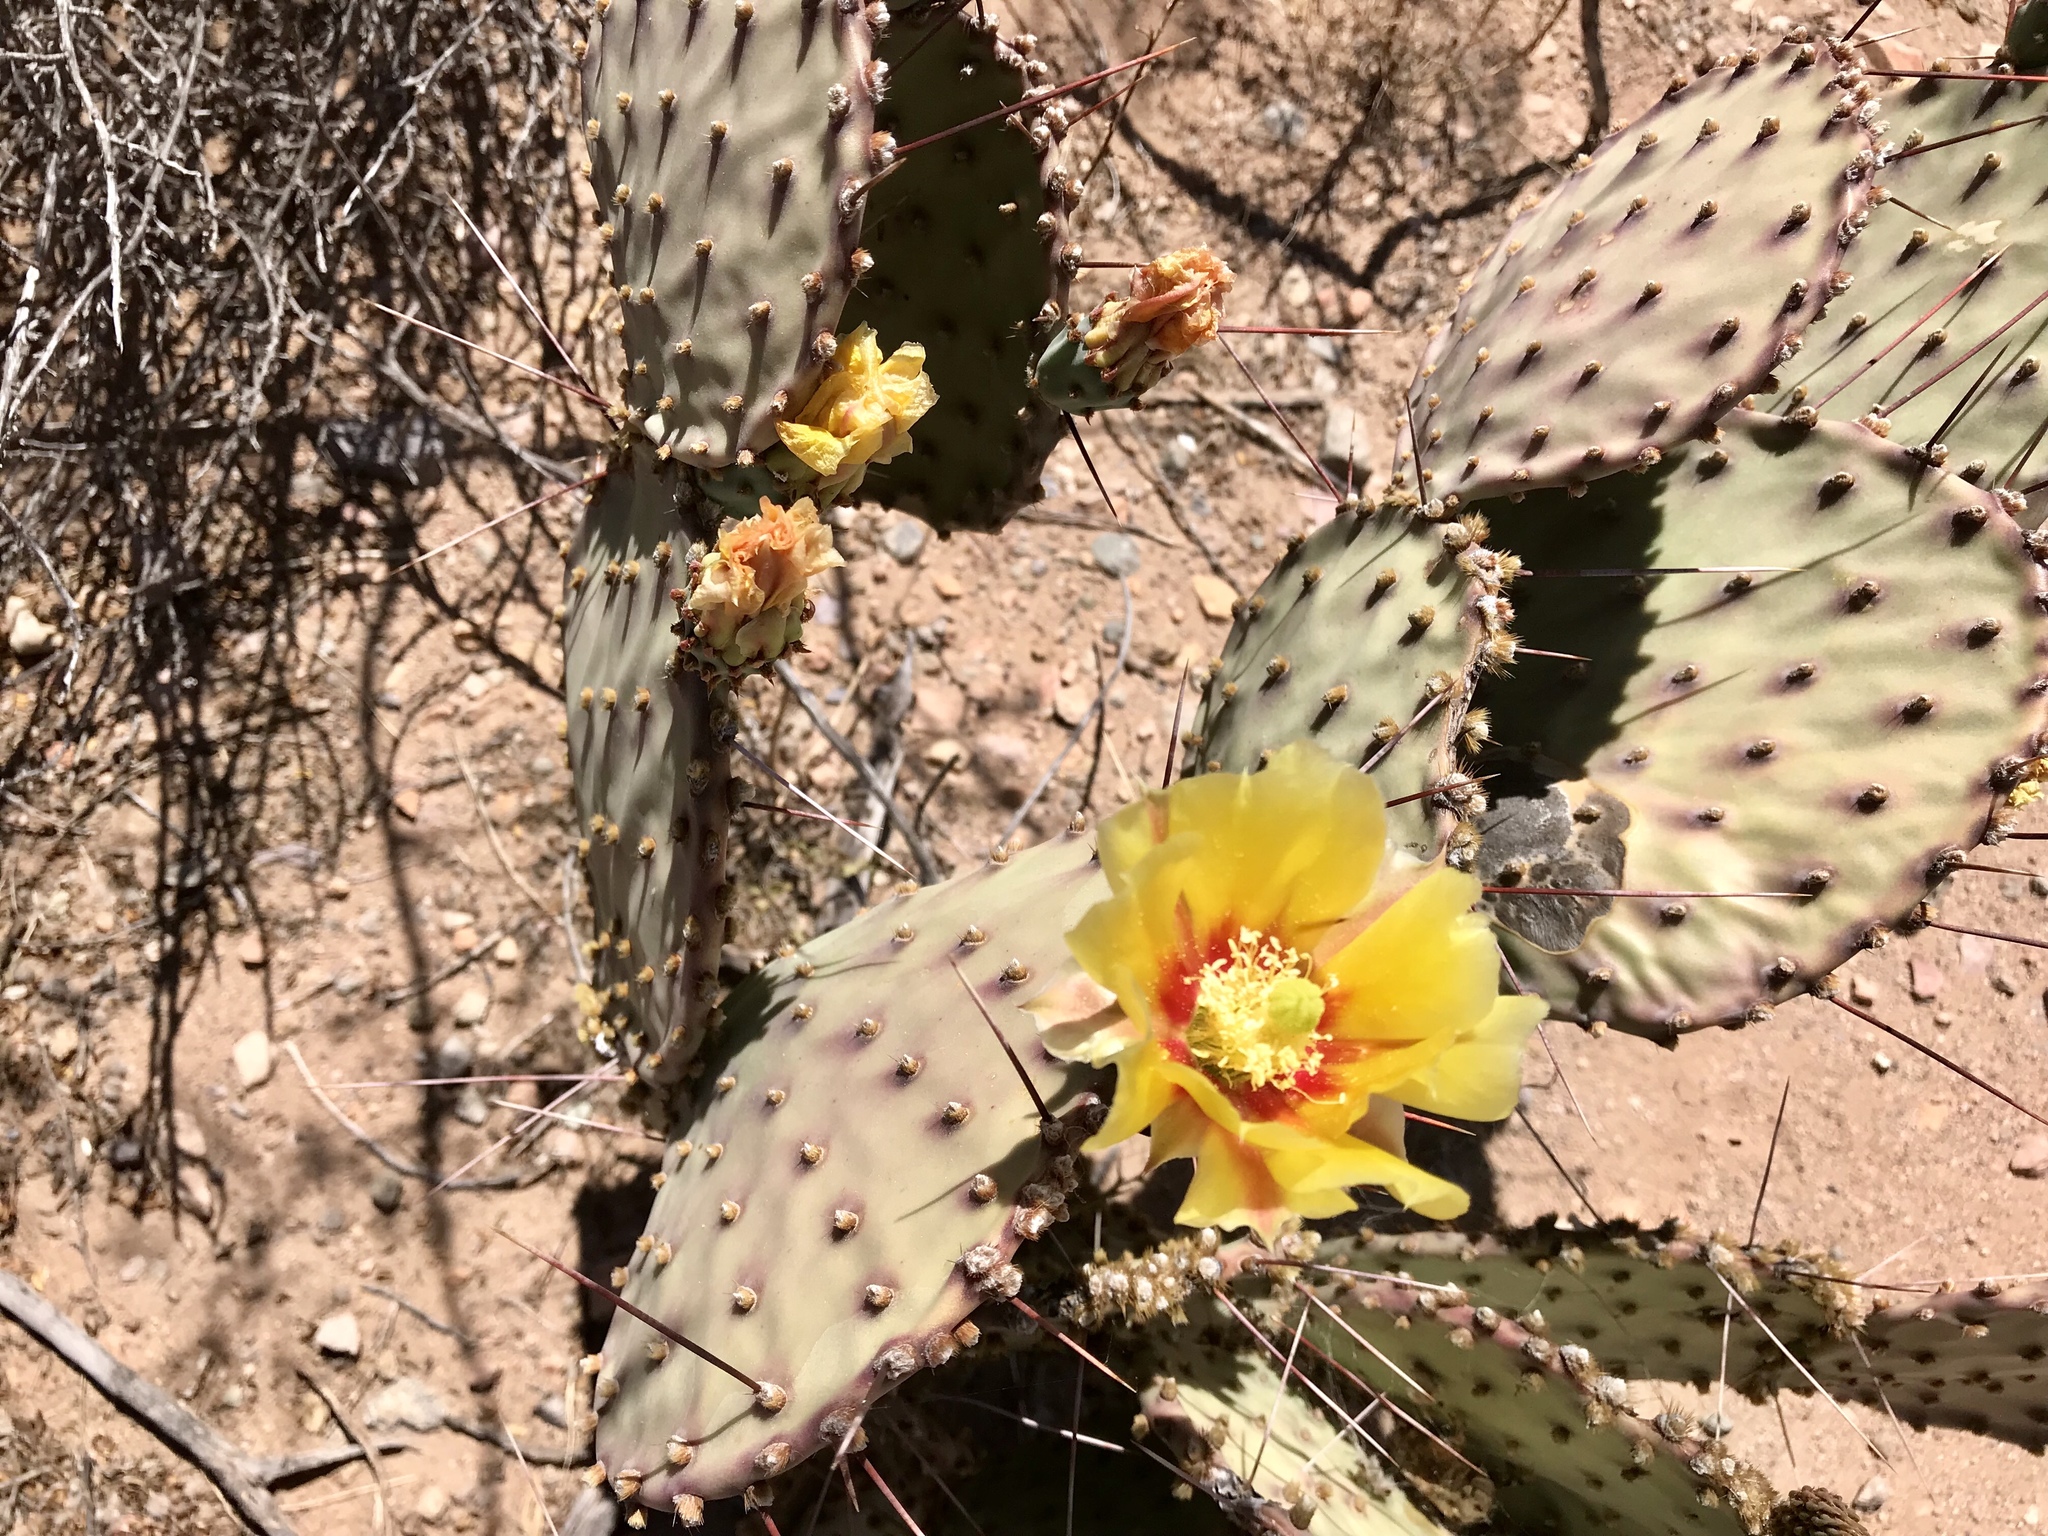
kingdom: Plantae
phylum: Tracheophyta
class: Magnoliopsida
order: Caryophyllales
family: Cactaceae
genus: Opuntia
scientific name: Opuntia macrocentra
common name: Purple prickly-pear
